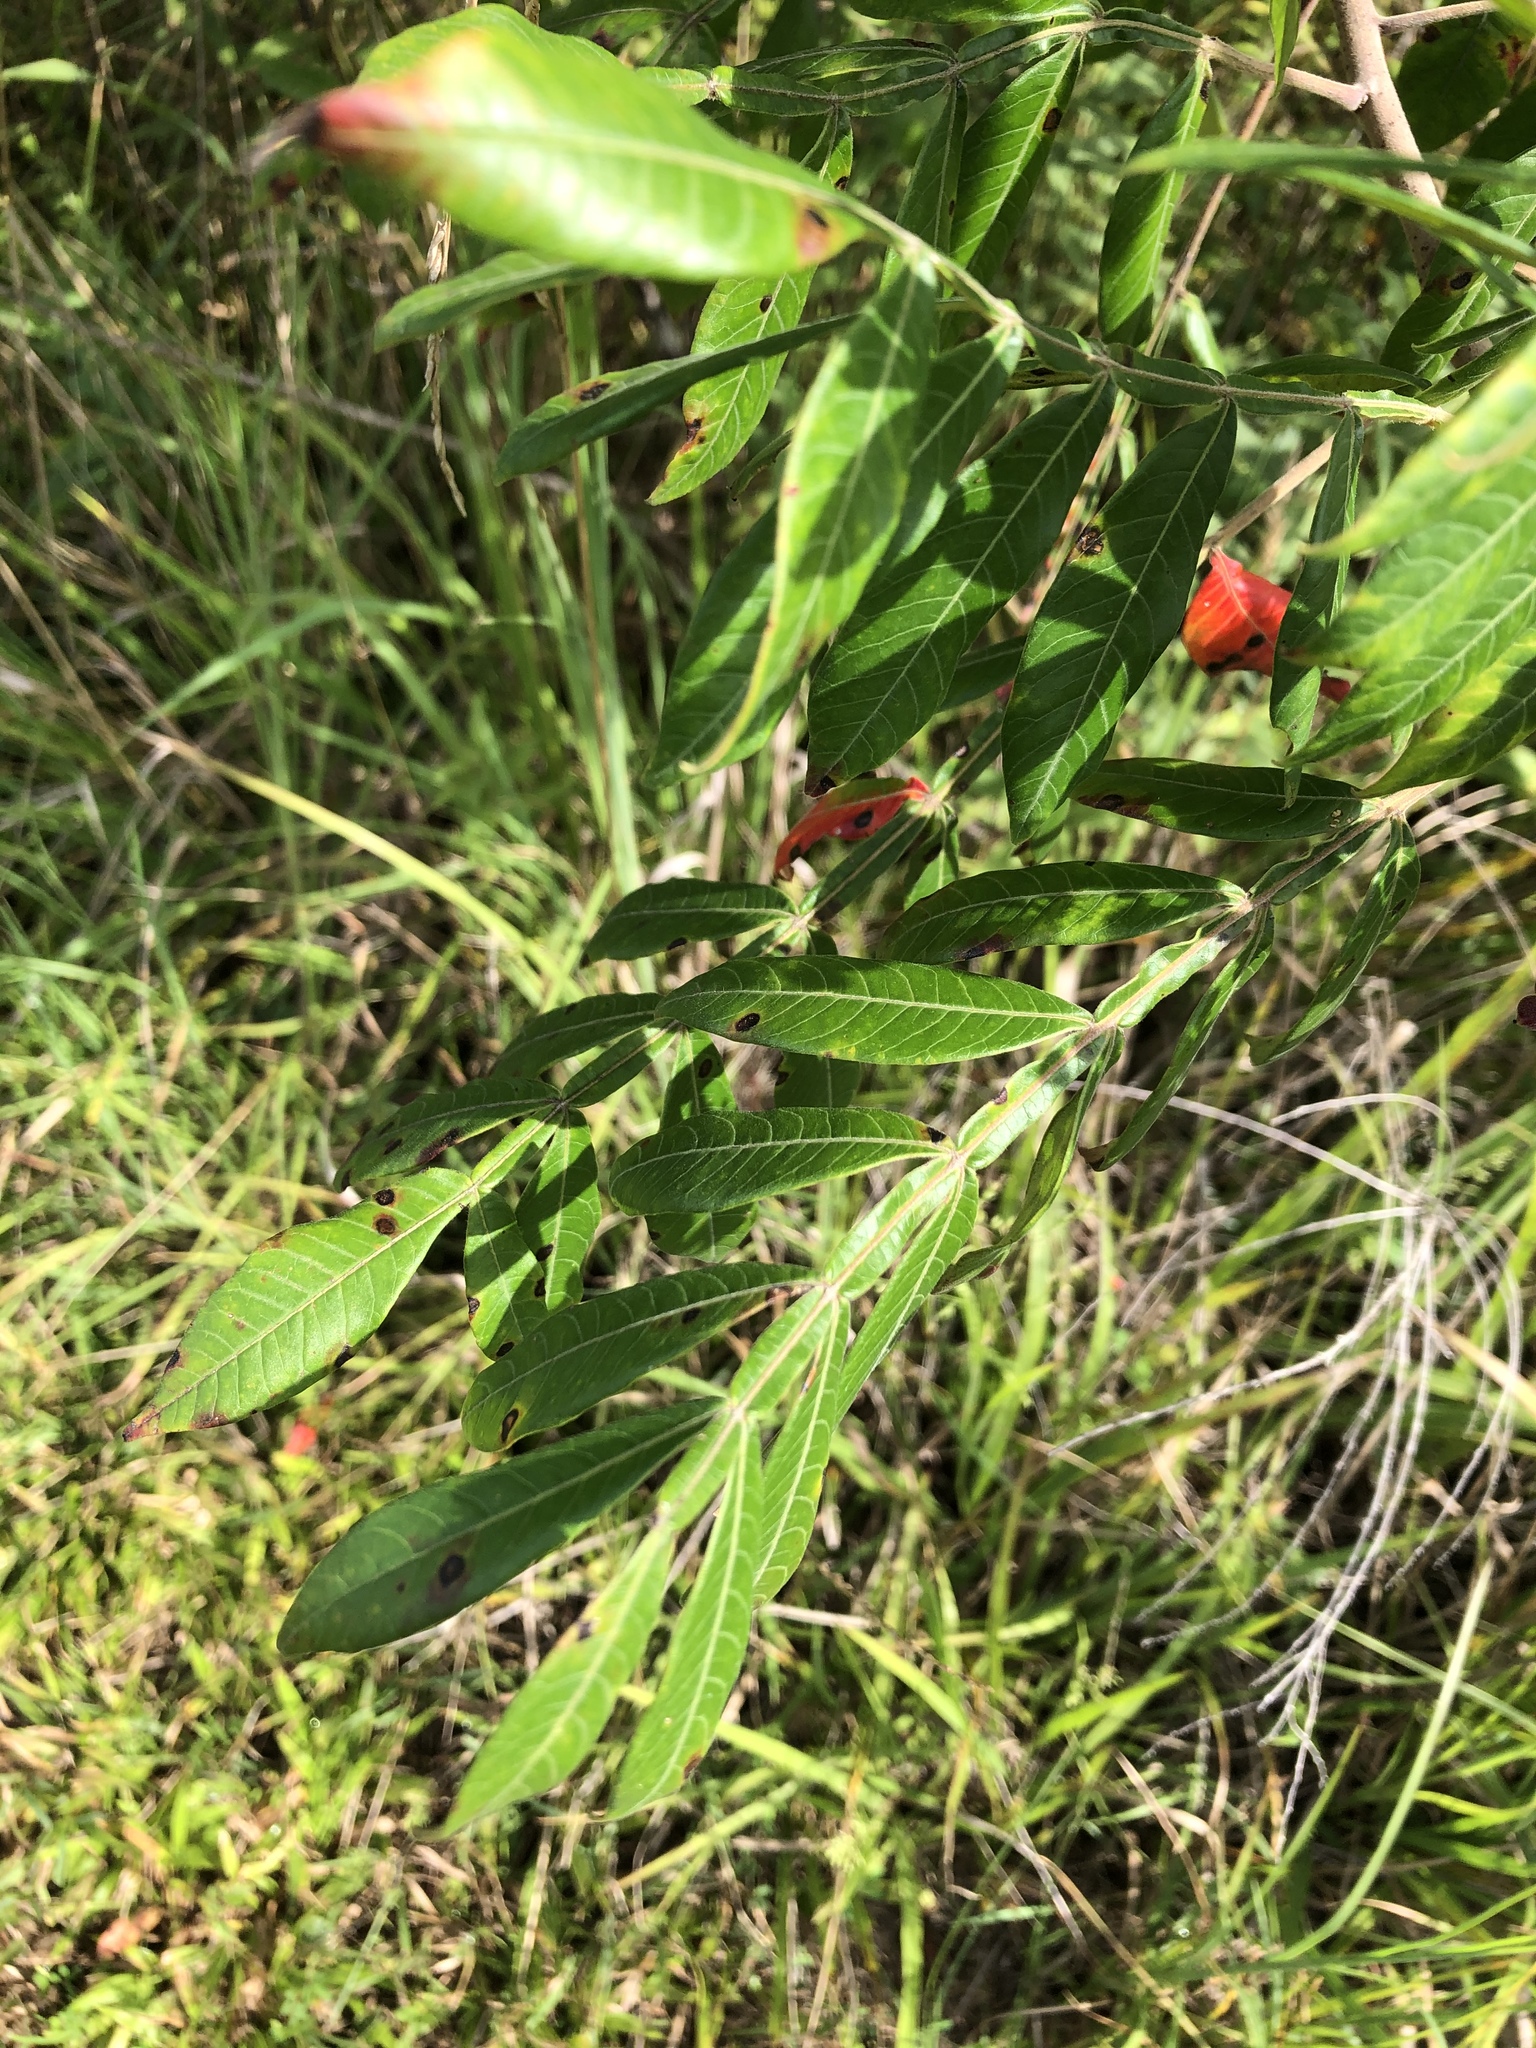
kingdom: Plantae
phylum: Tracheophyta
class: Magnoliopsida
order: Sapindales
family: Anacardiaceae
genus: Rhus
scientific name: Rhus copallina
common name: Shining sumac
